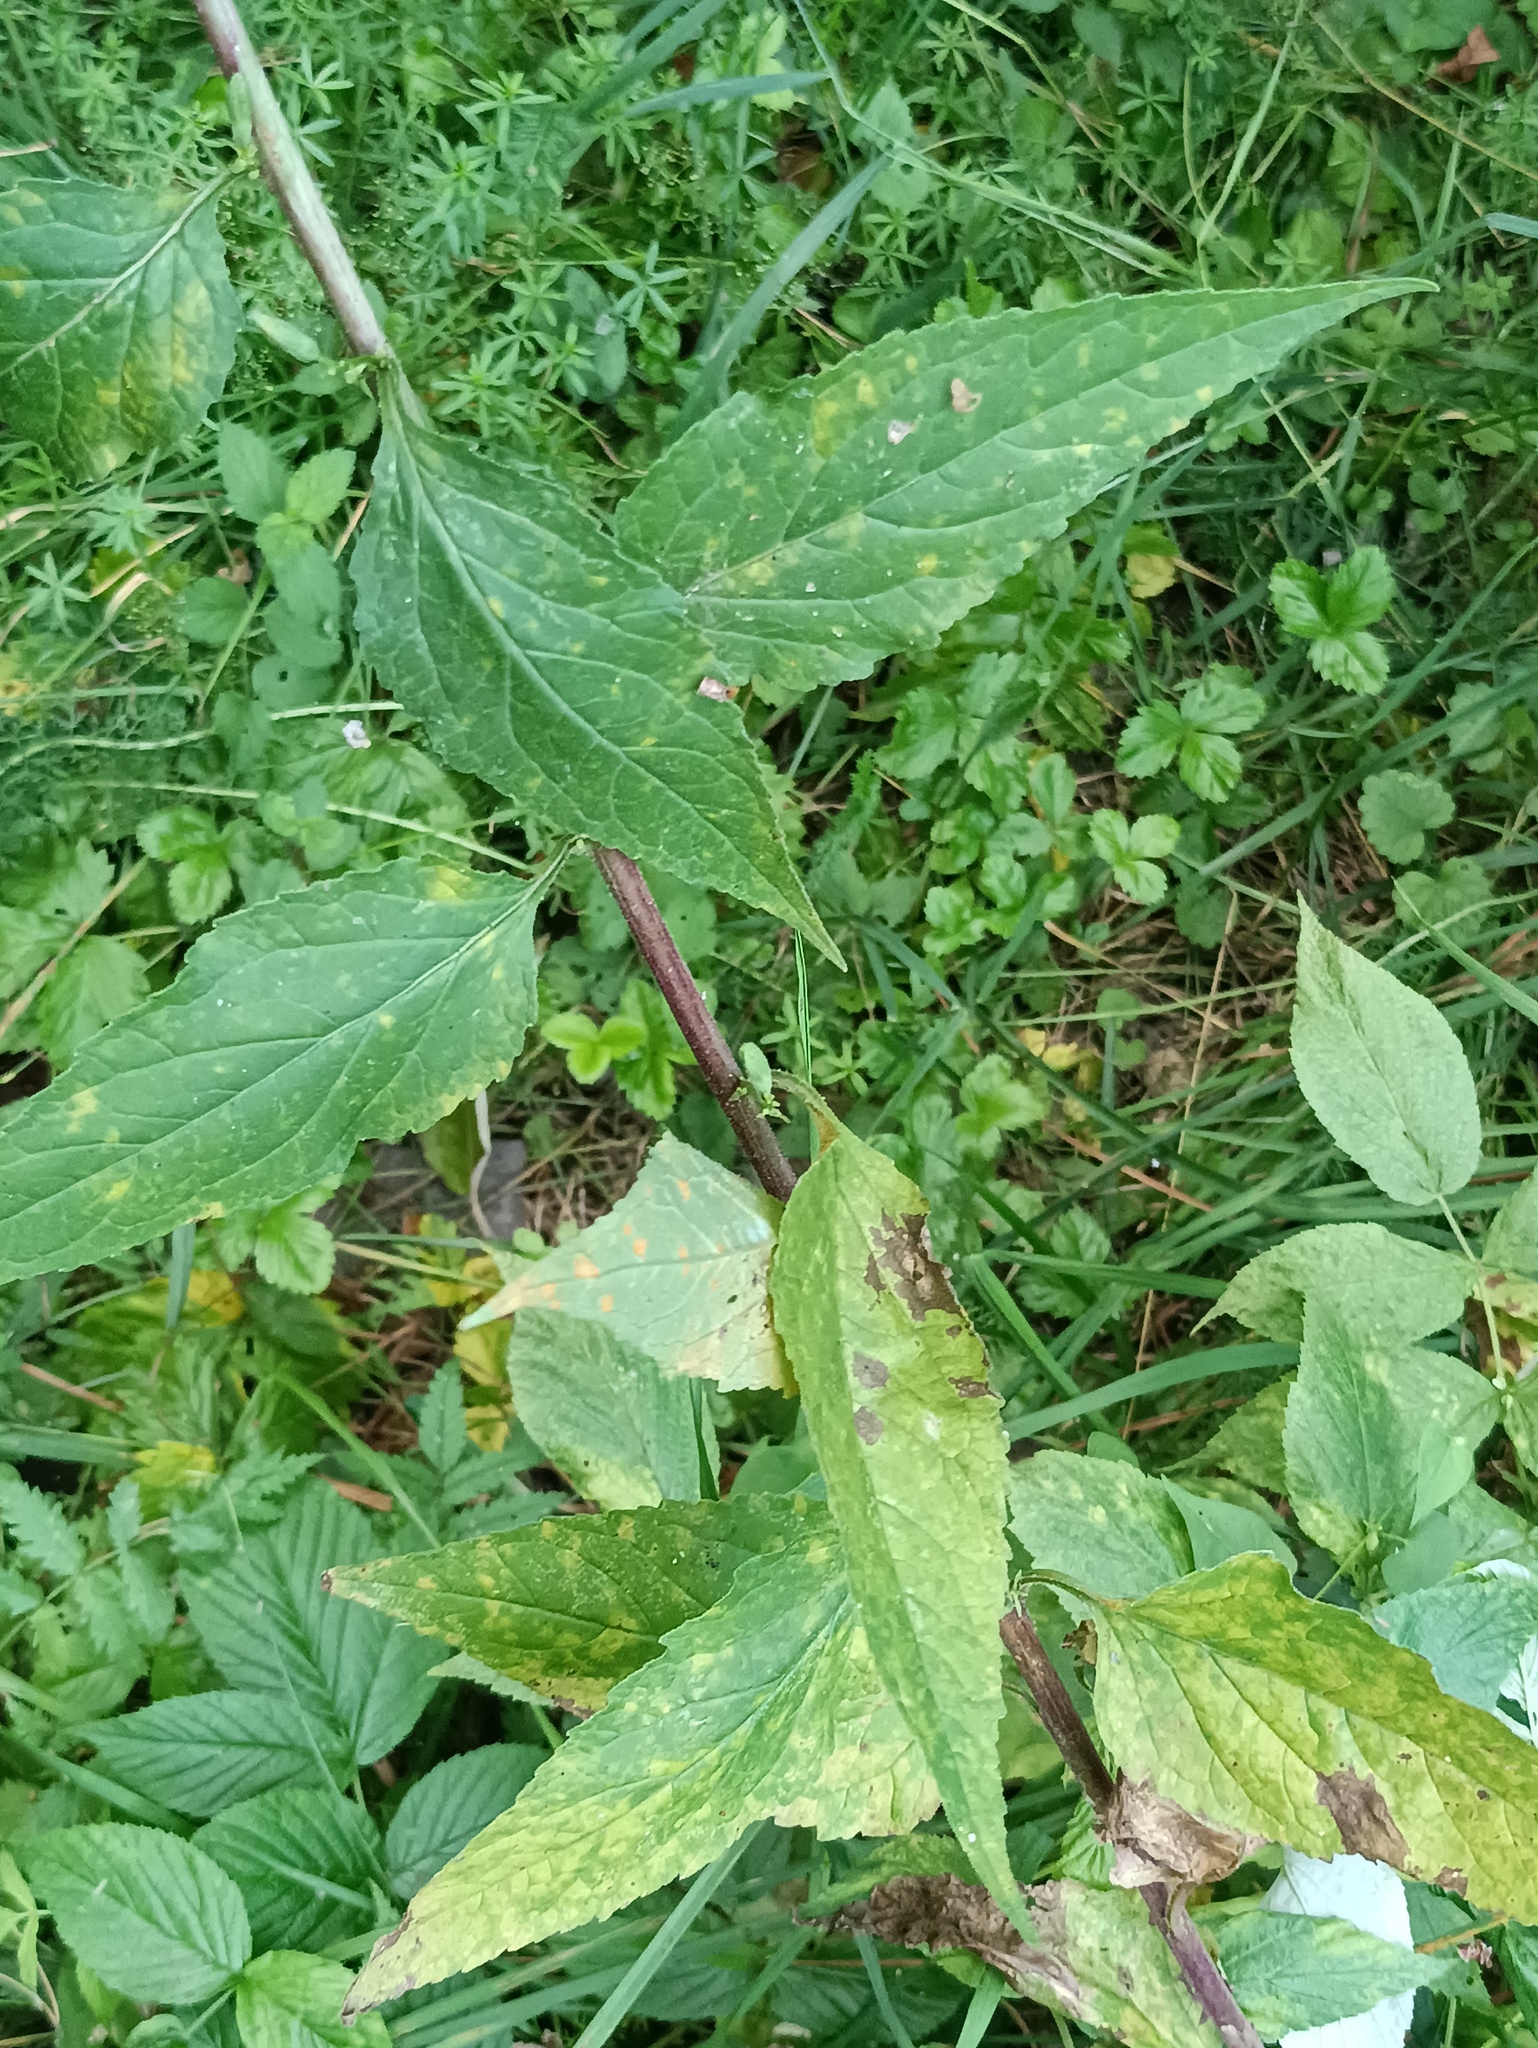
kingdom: Plantae
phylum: Tracheophyta
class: Magnoliopsida
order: Asterales
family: Campanulaceae
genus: Campanula
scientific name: Campanula rapunculoides
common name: Creeping bellflower
